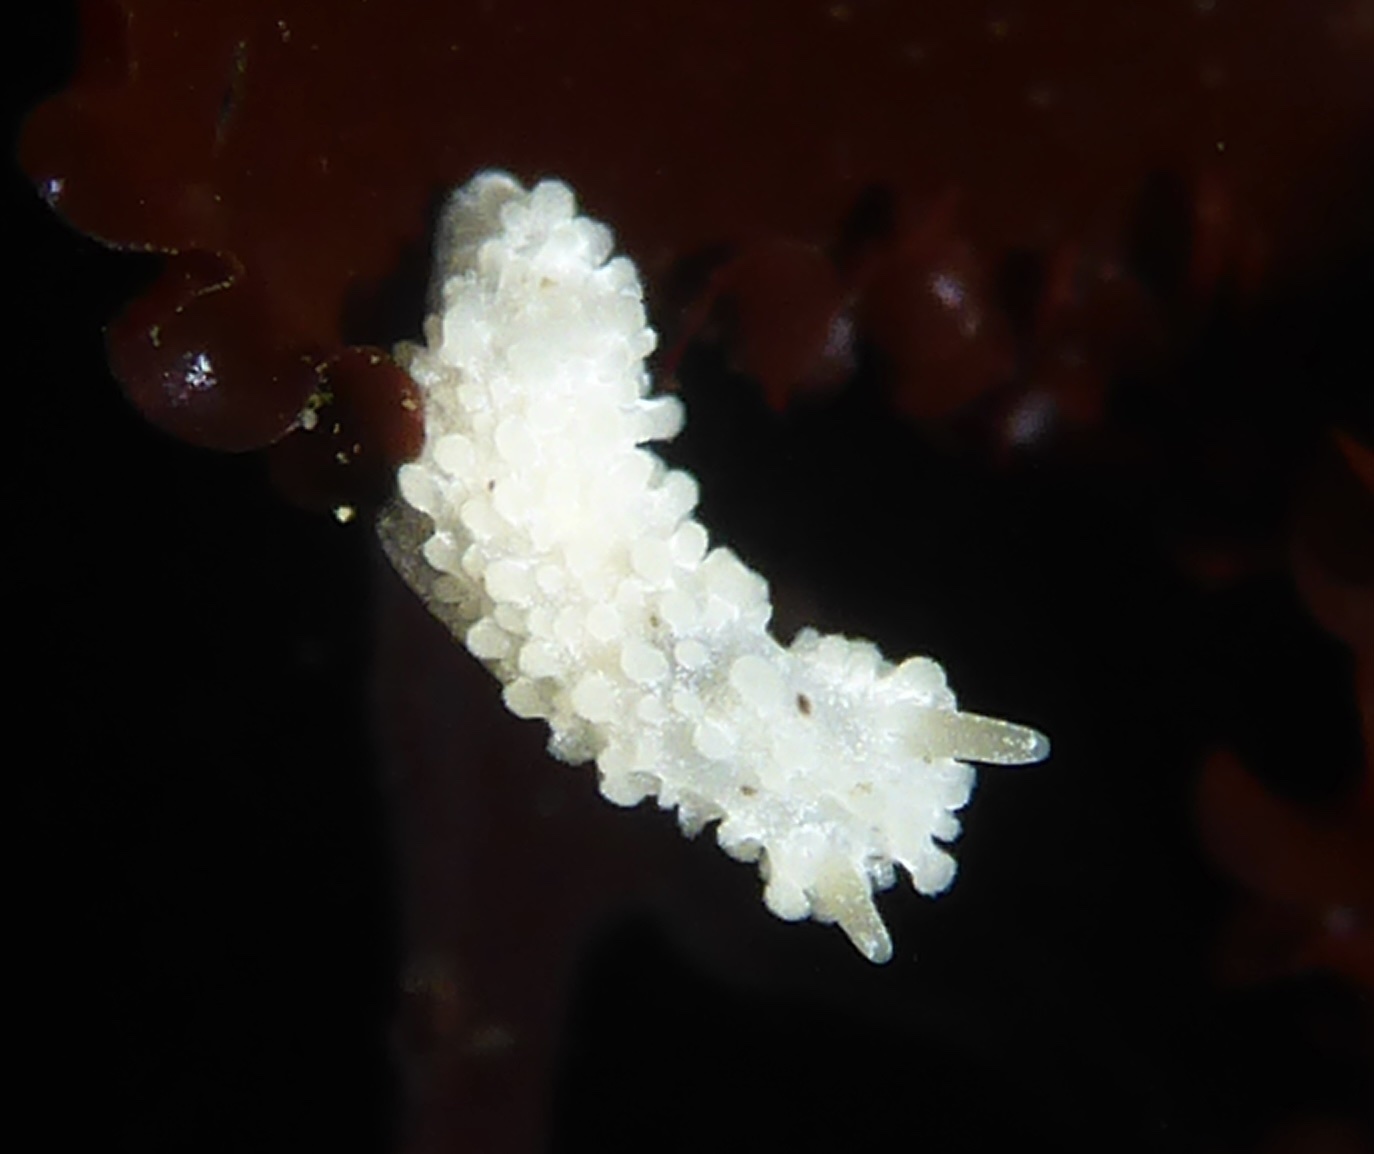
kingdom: Animalia
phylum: Mollusca
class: Gastropoda
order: Nudibranchia
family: Aegiridae
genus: Aegires
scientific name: Aegires albopunctatus
